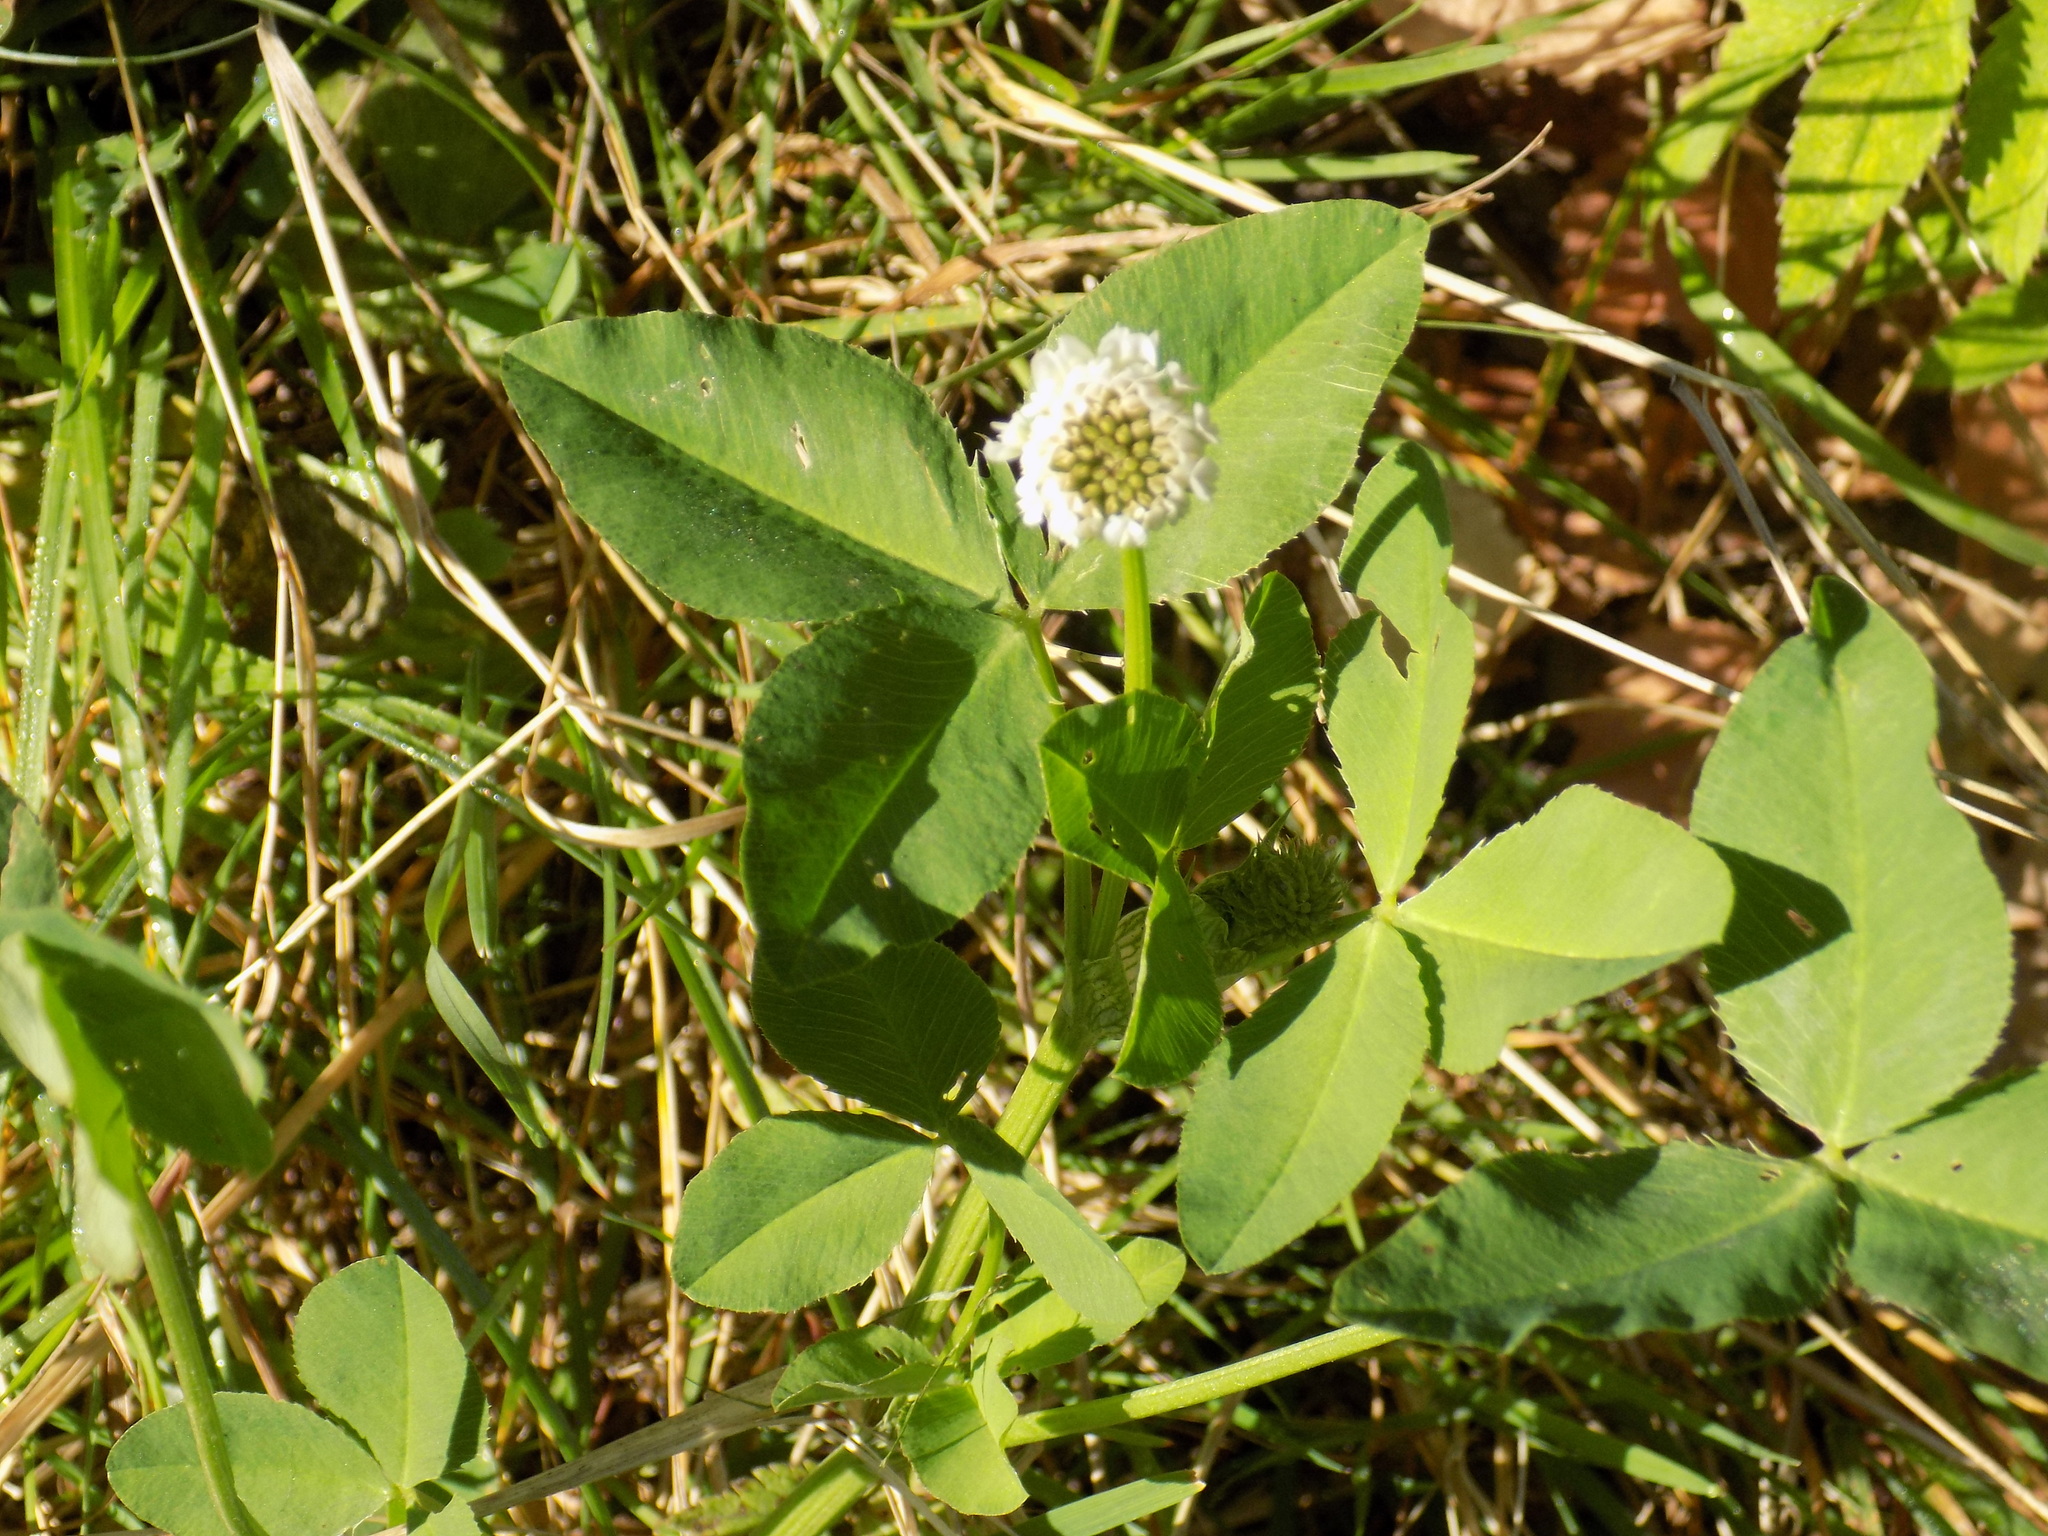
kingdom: Plantae
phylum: Tracheophyta
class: Magnoliopsida
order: Fabales
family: Fabaceae
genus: Trifolium
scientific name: Trifolium hybridum
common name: Alsike clover
